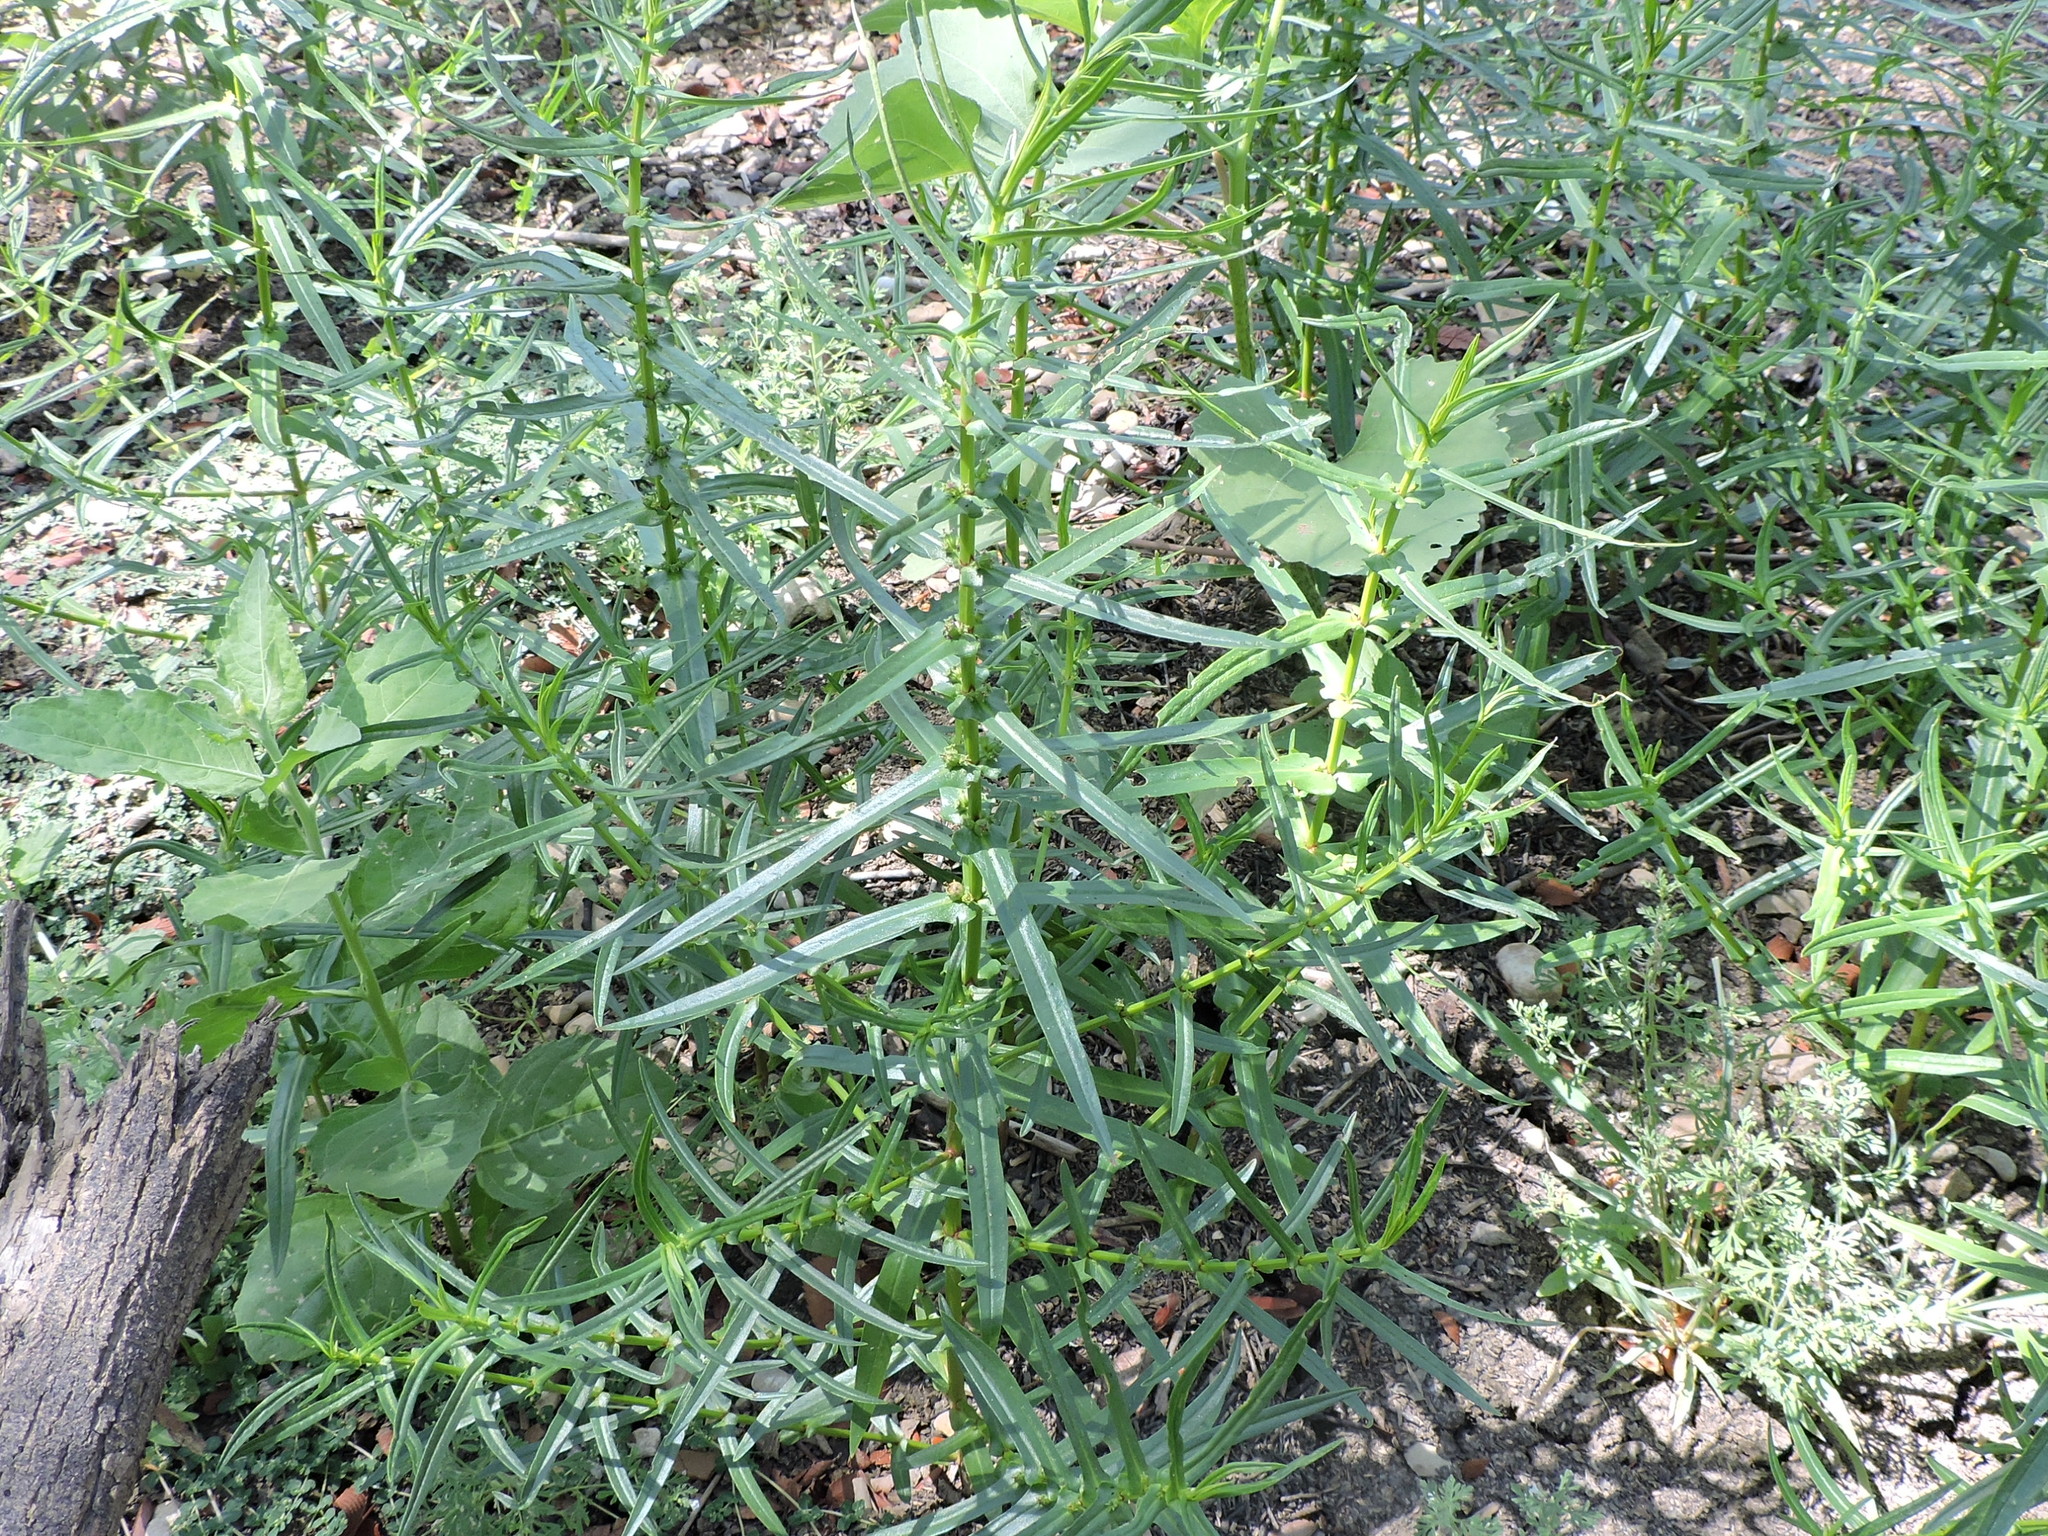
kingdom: Plantae
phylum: Tracheophyta
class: Magnoliopsida
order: Myrtales
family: Lythraceae
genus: Ammannia
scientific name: Ammannia coccinea
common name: Valley redstem
